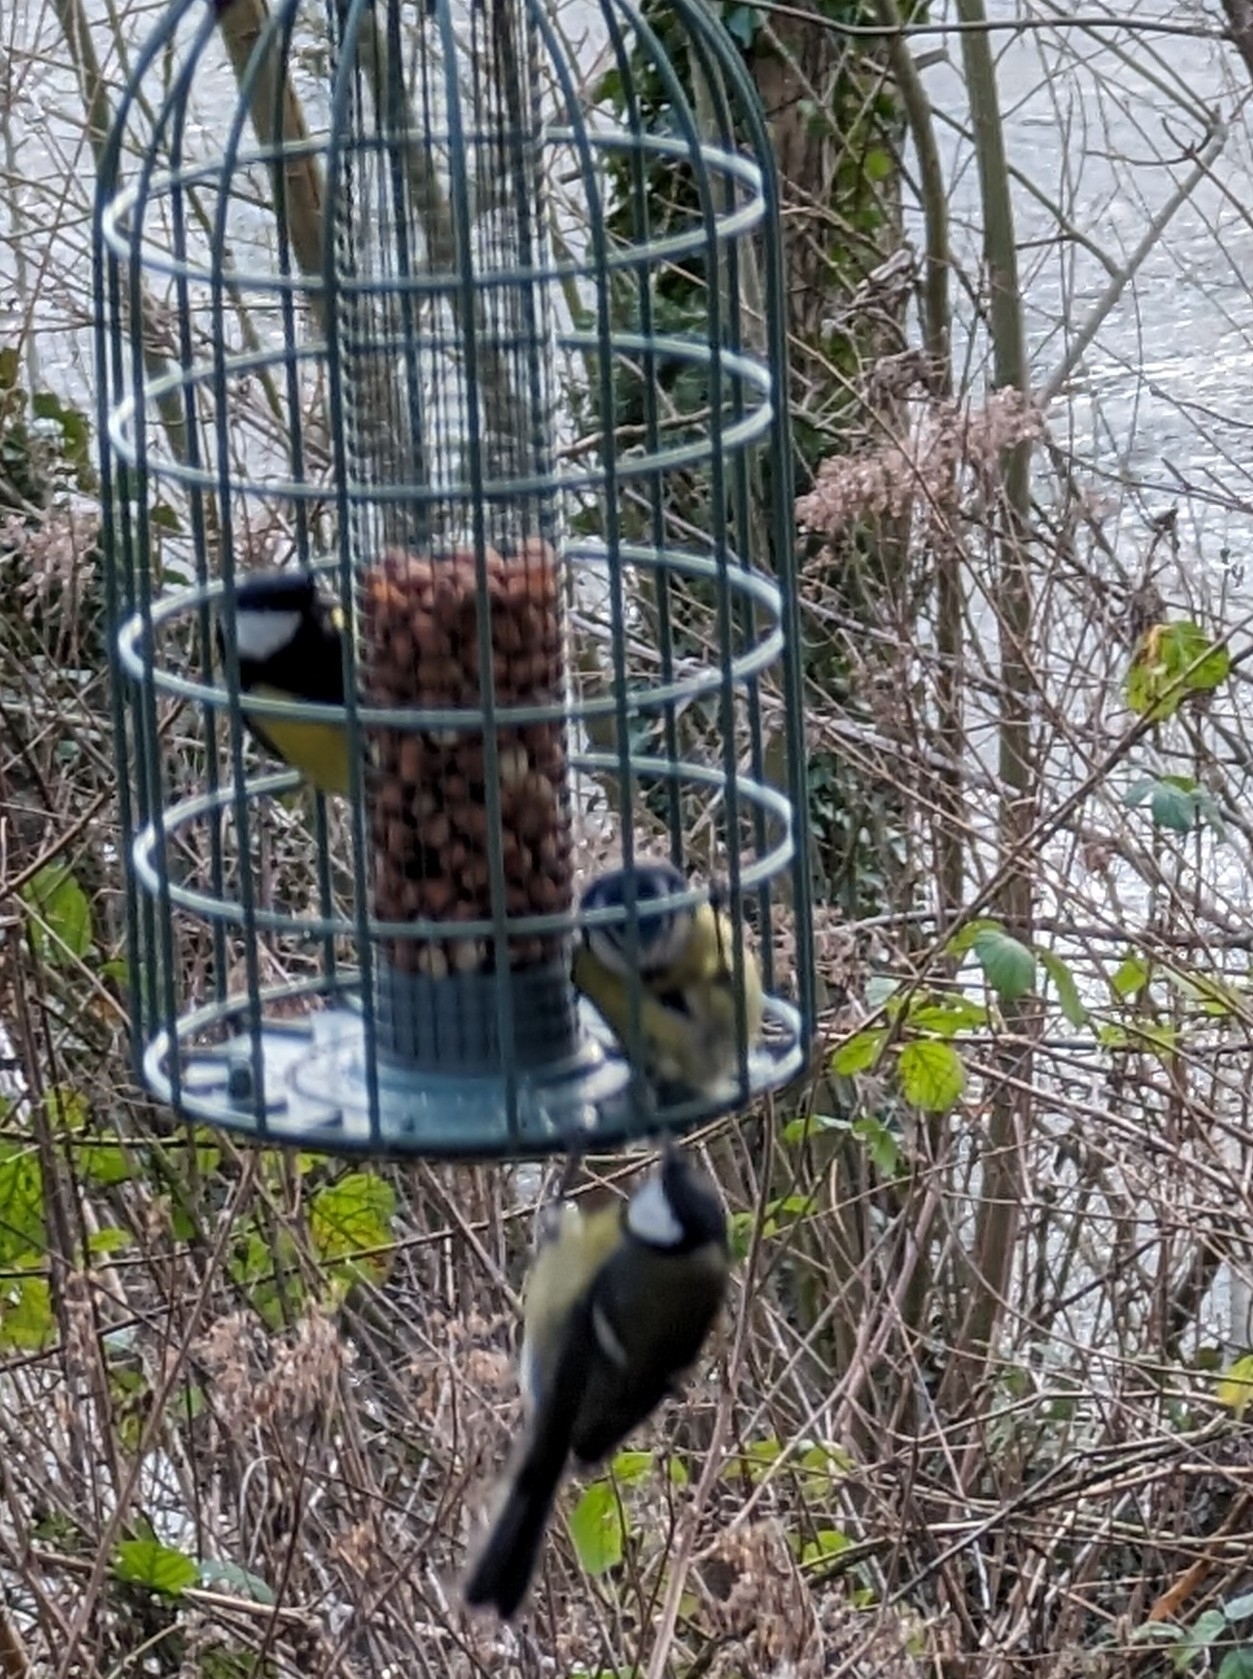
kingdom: Animalia
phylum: Chordata
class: Aves
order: Passeriformes
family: Paridae
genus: Parus
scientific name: Parus major
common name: Great tit
